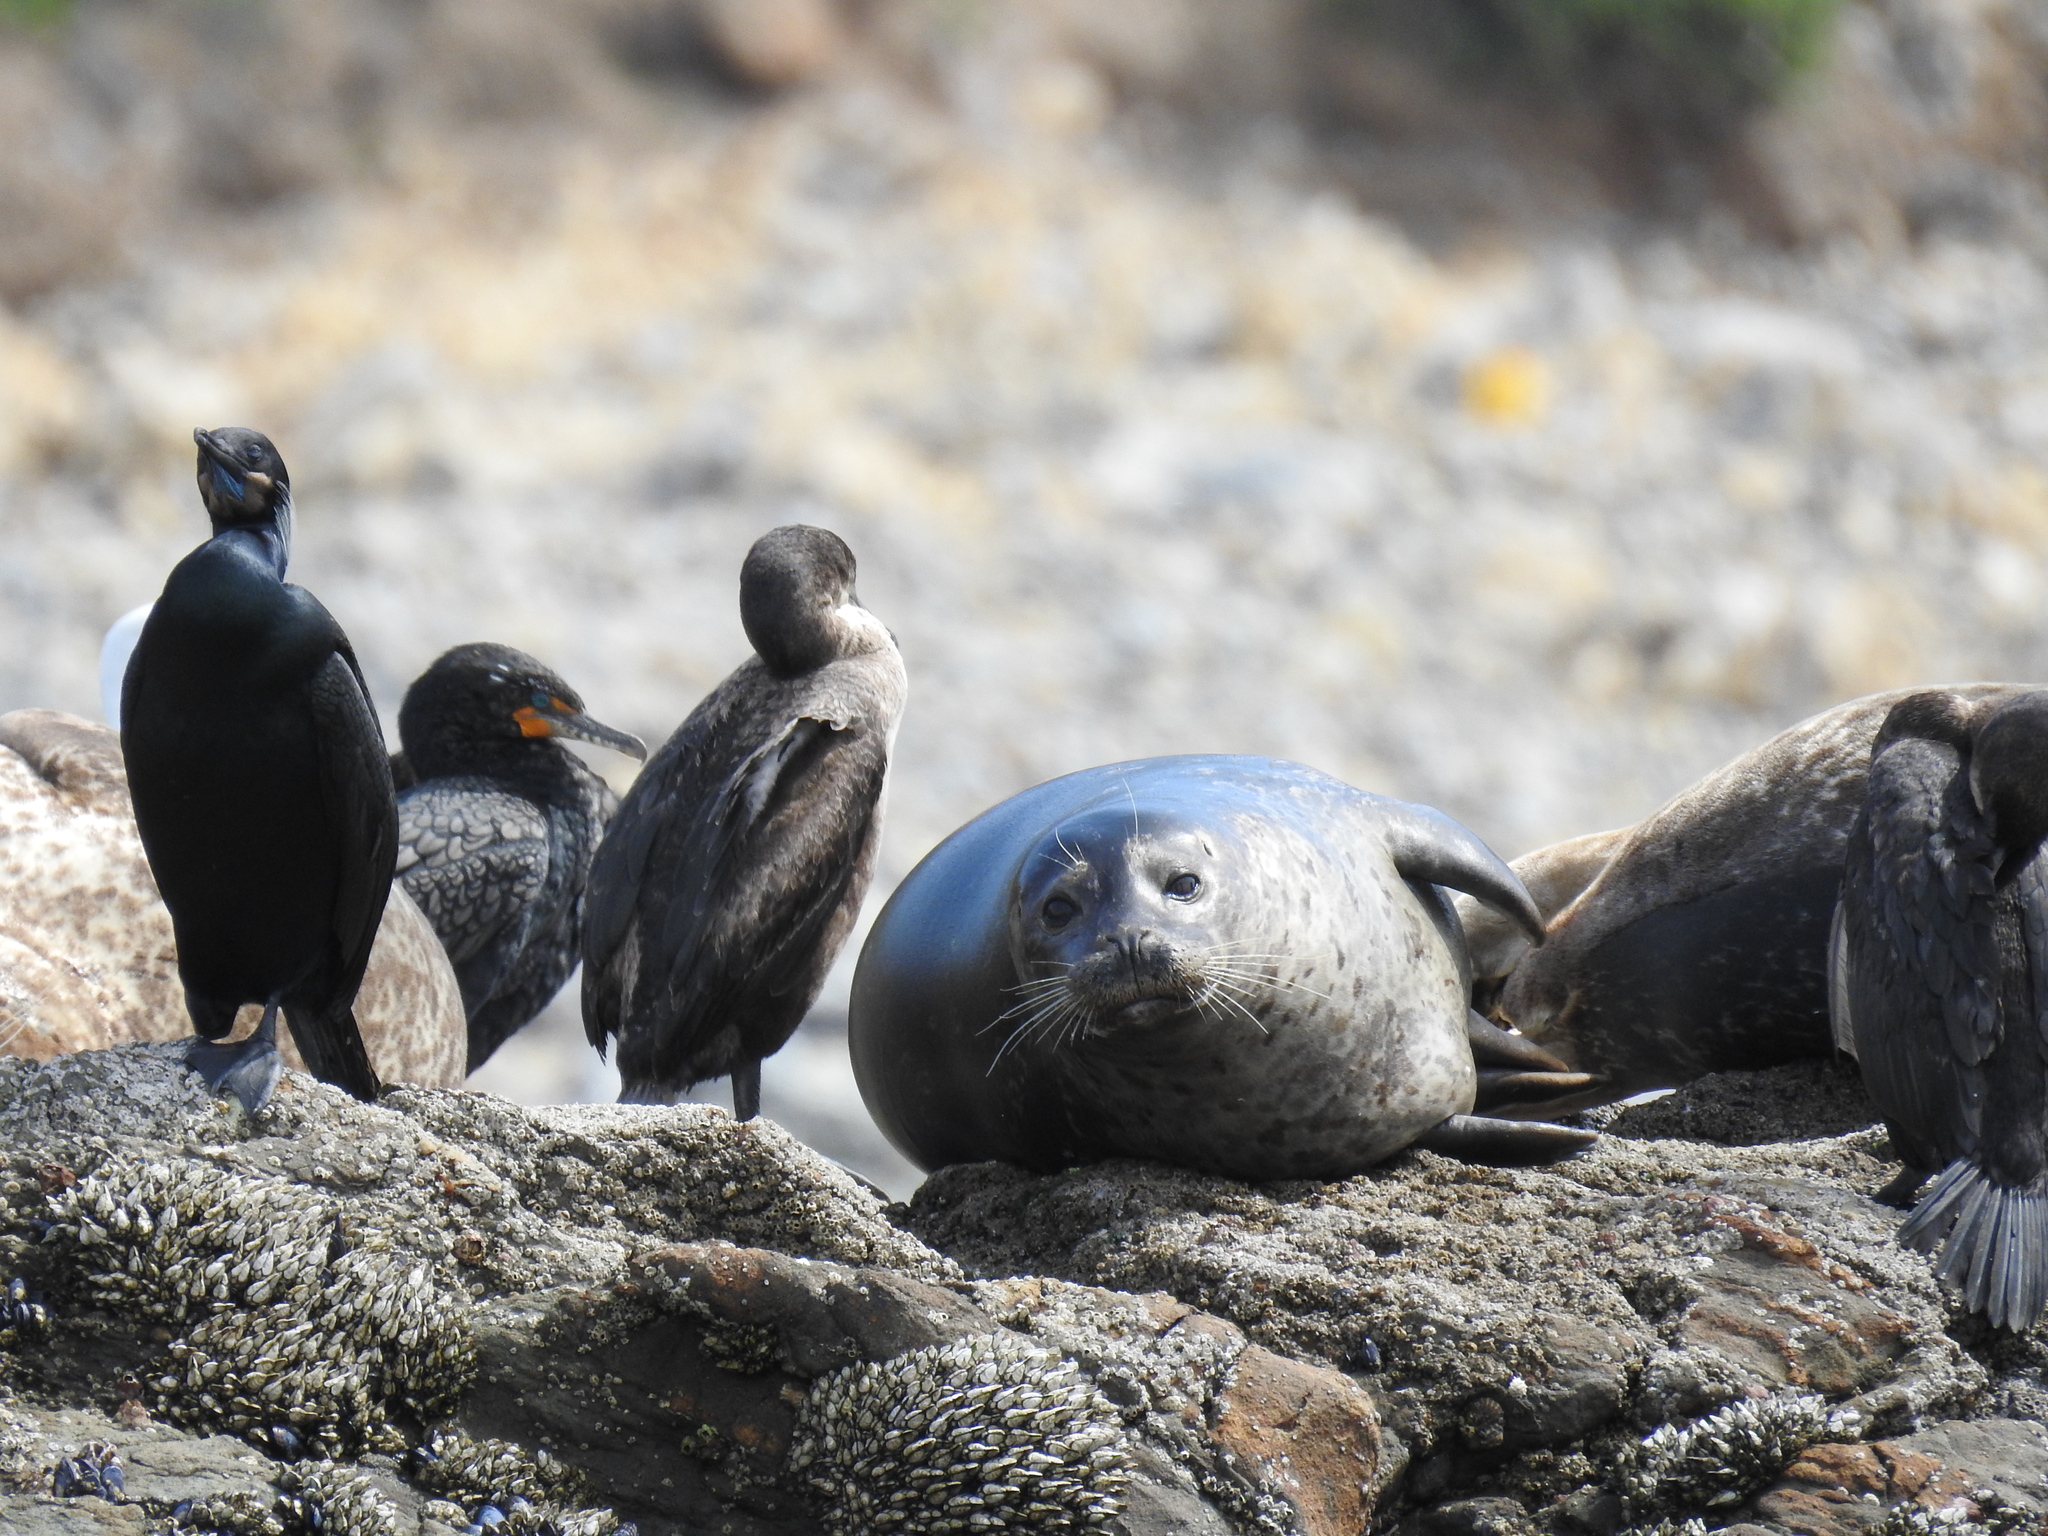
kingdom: Animalia
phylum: Chordata
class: Mammalia
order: Carnivora
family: Phocidae
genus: Phoca
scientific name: Phoca vitulina
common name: Harbor seal
